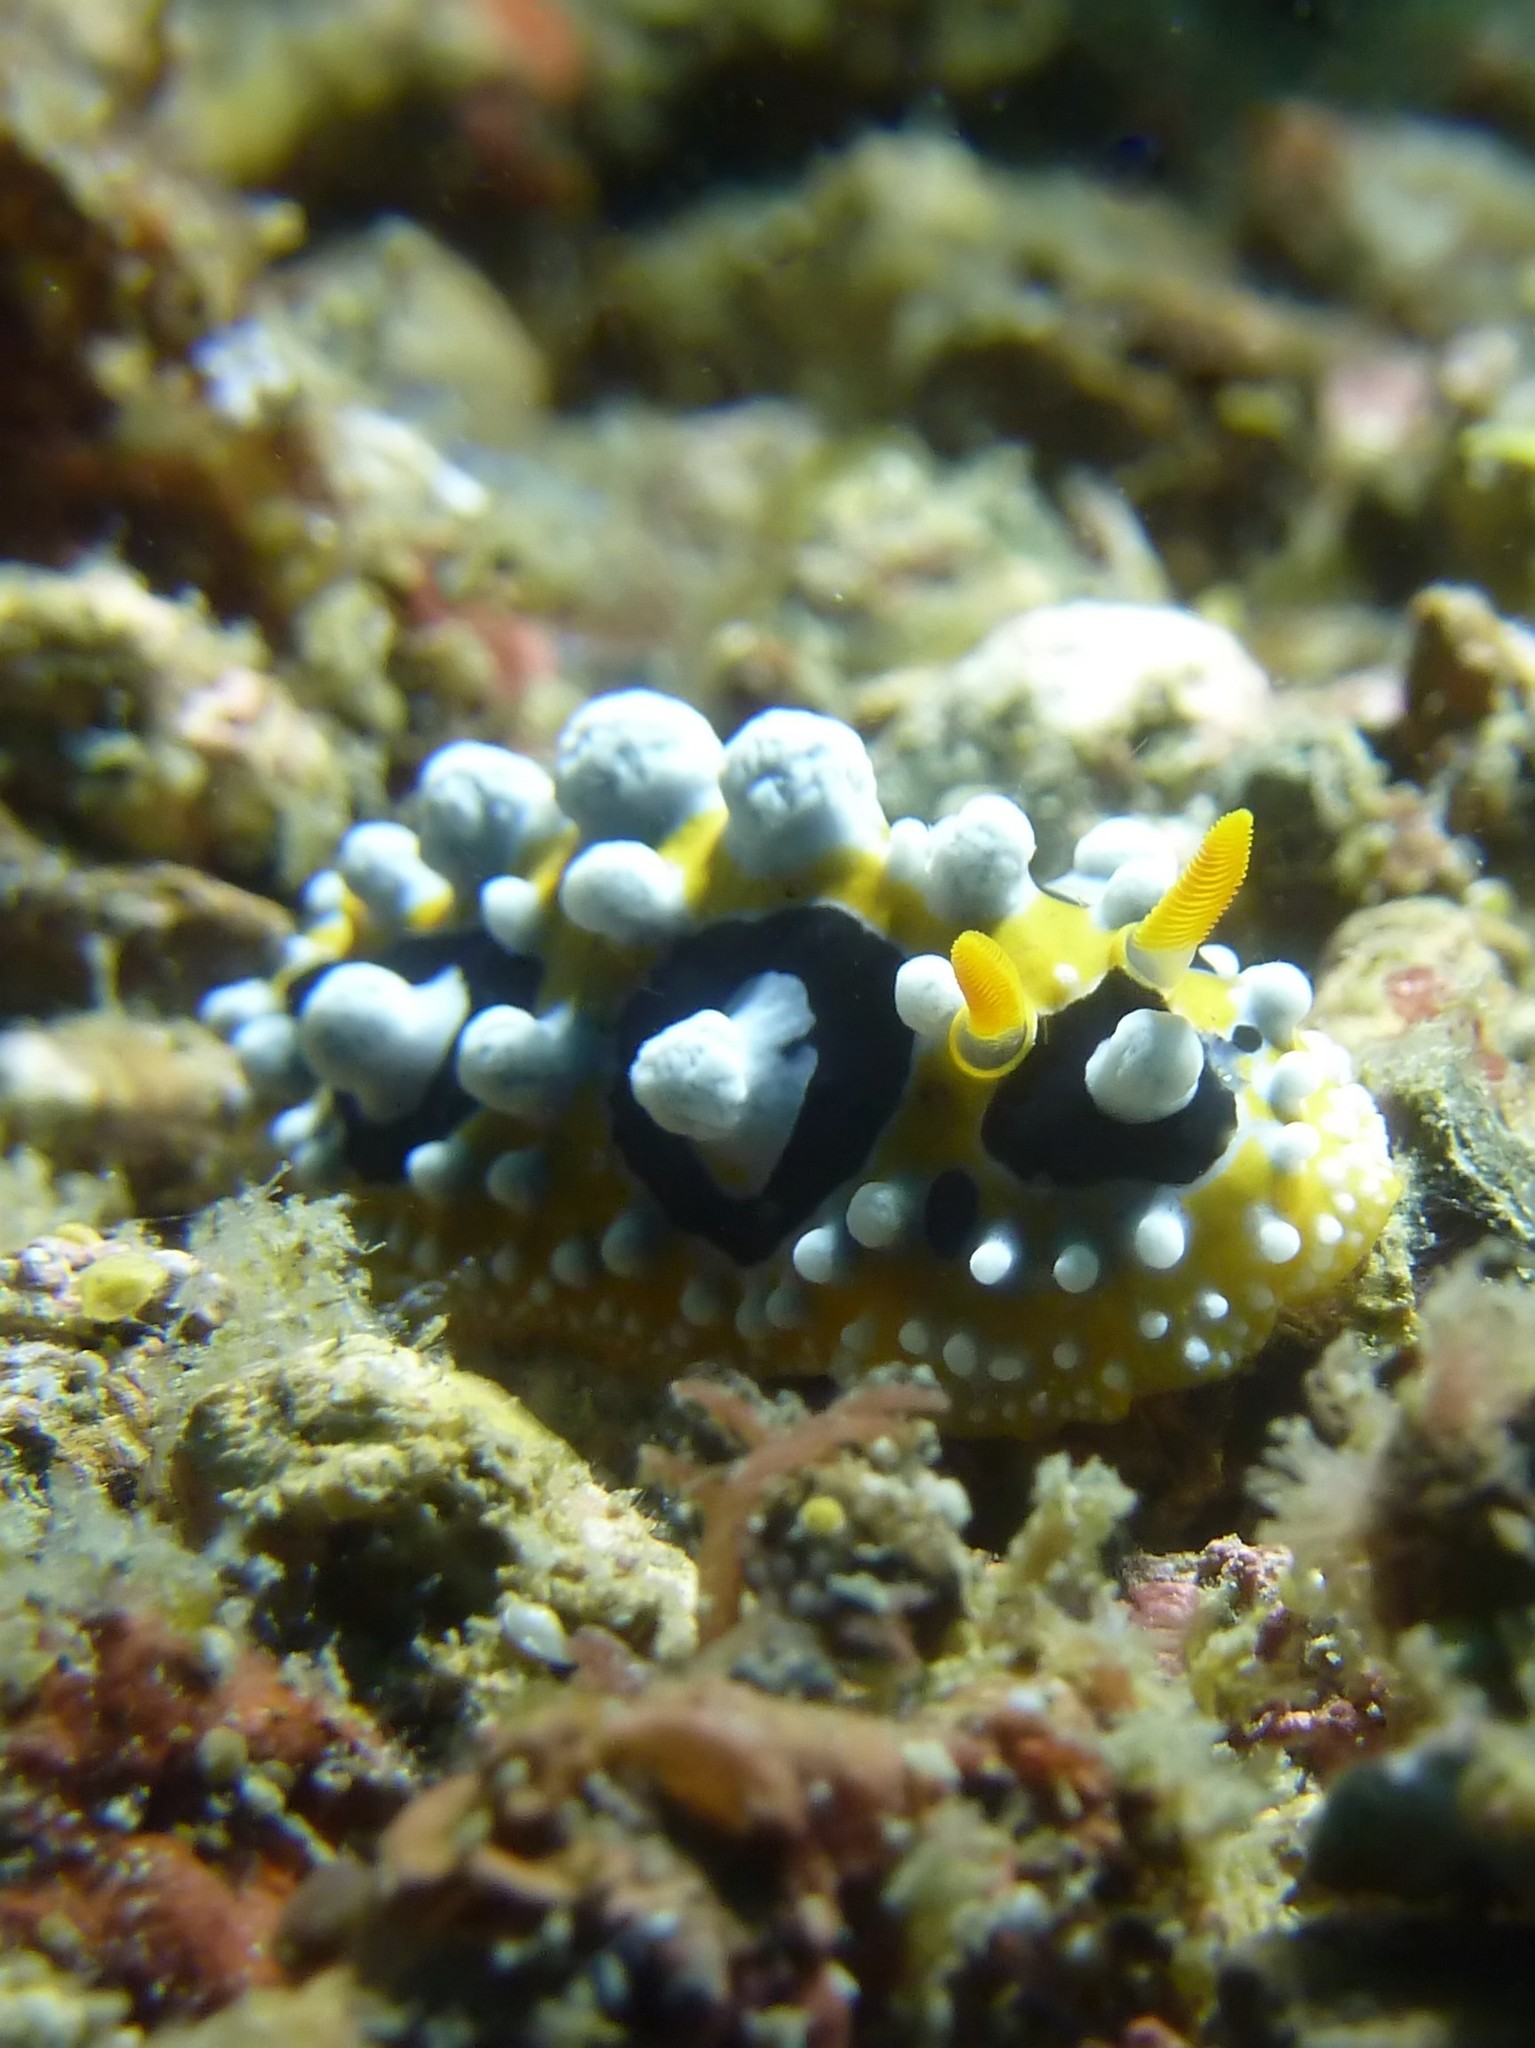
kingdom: Animalia
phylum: Mollusca
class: Gastropoda
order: Nudibranchia
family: Phyllidiidae
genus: Phyllidia
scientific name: Phyllidia ocellata
